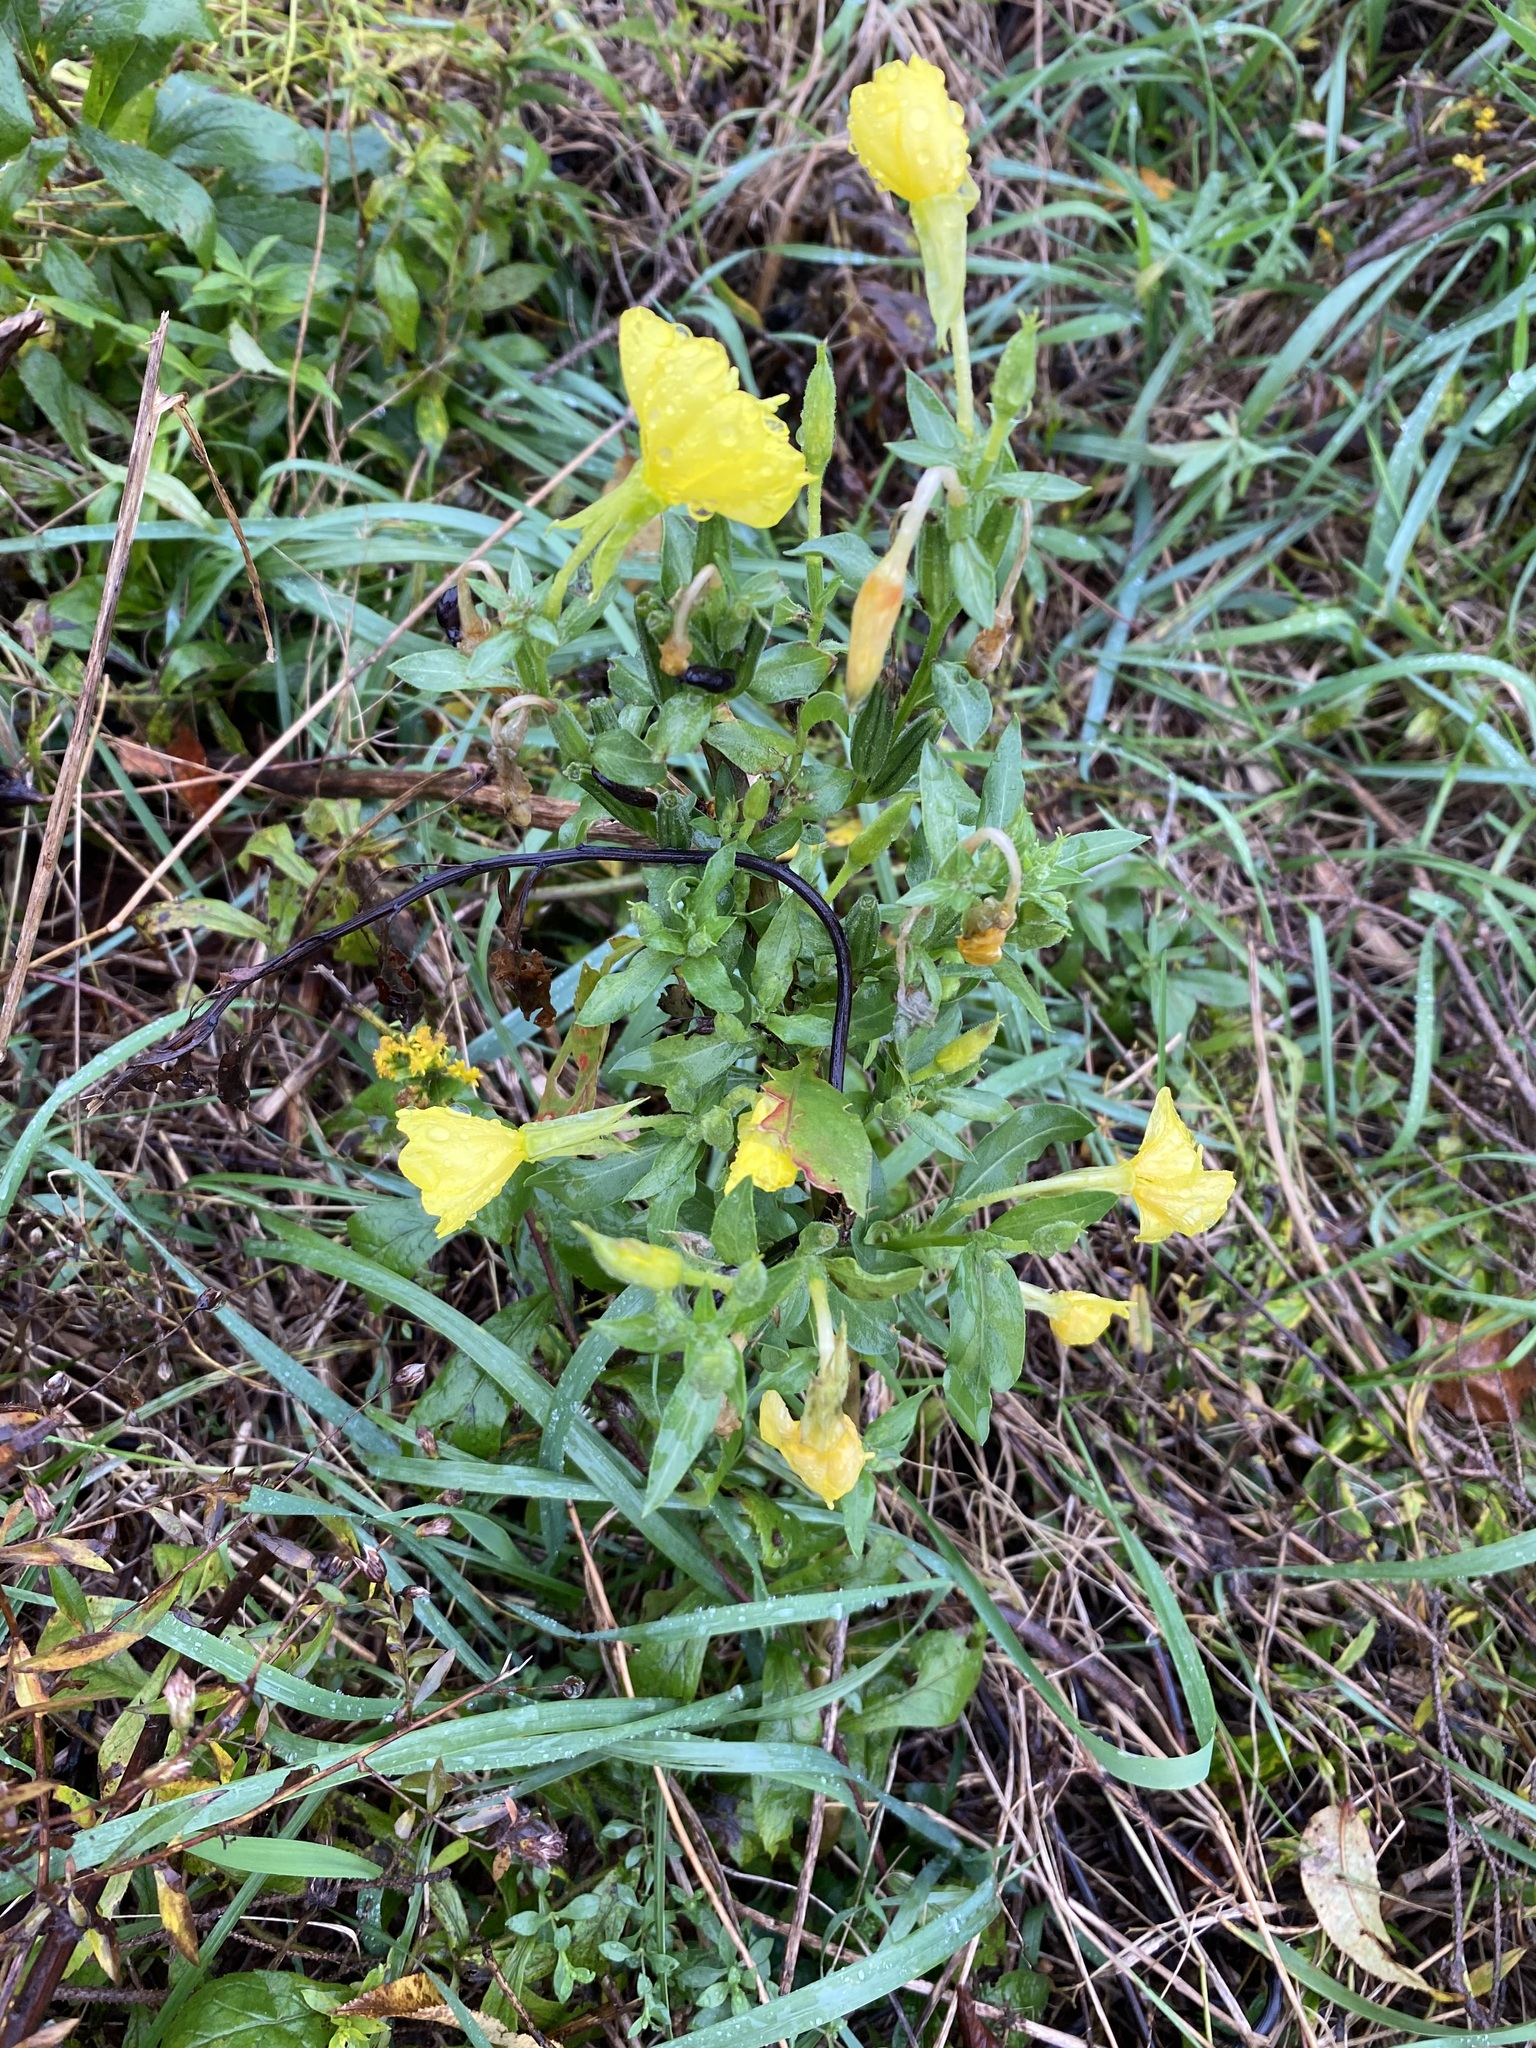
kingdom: Plantae
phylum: Tracheophyta
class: Magnoliopsida
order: Myrtales
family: Onagraceae
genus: Oenothera
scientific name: Oenothera biennis
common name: Common evening-primrose
